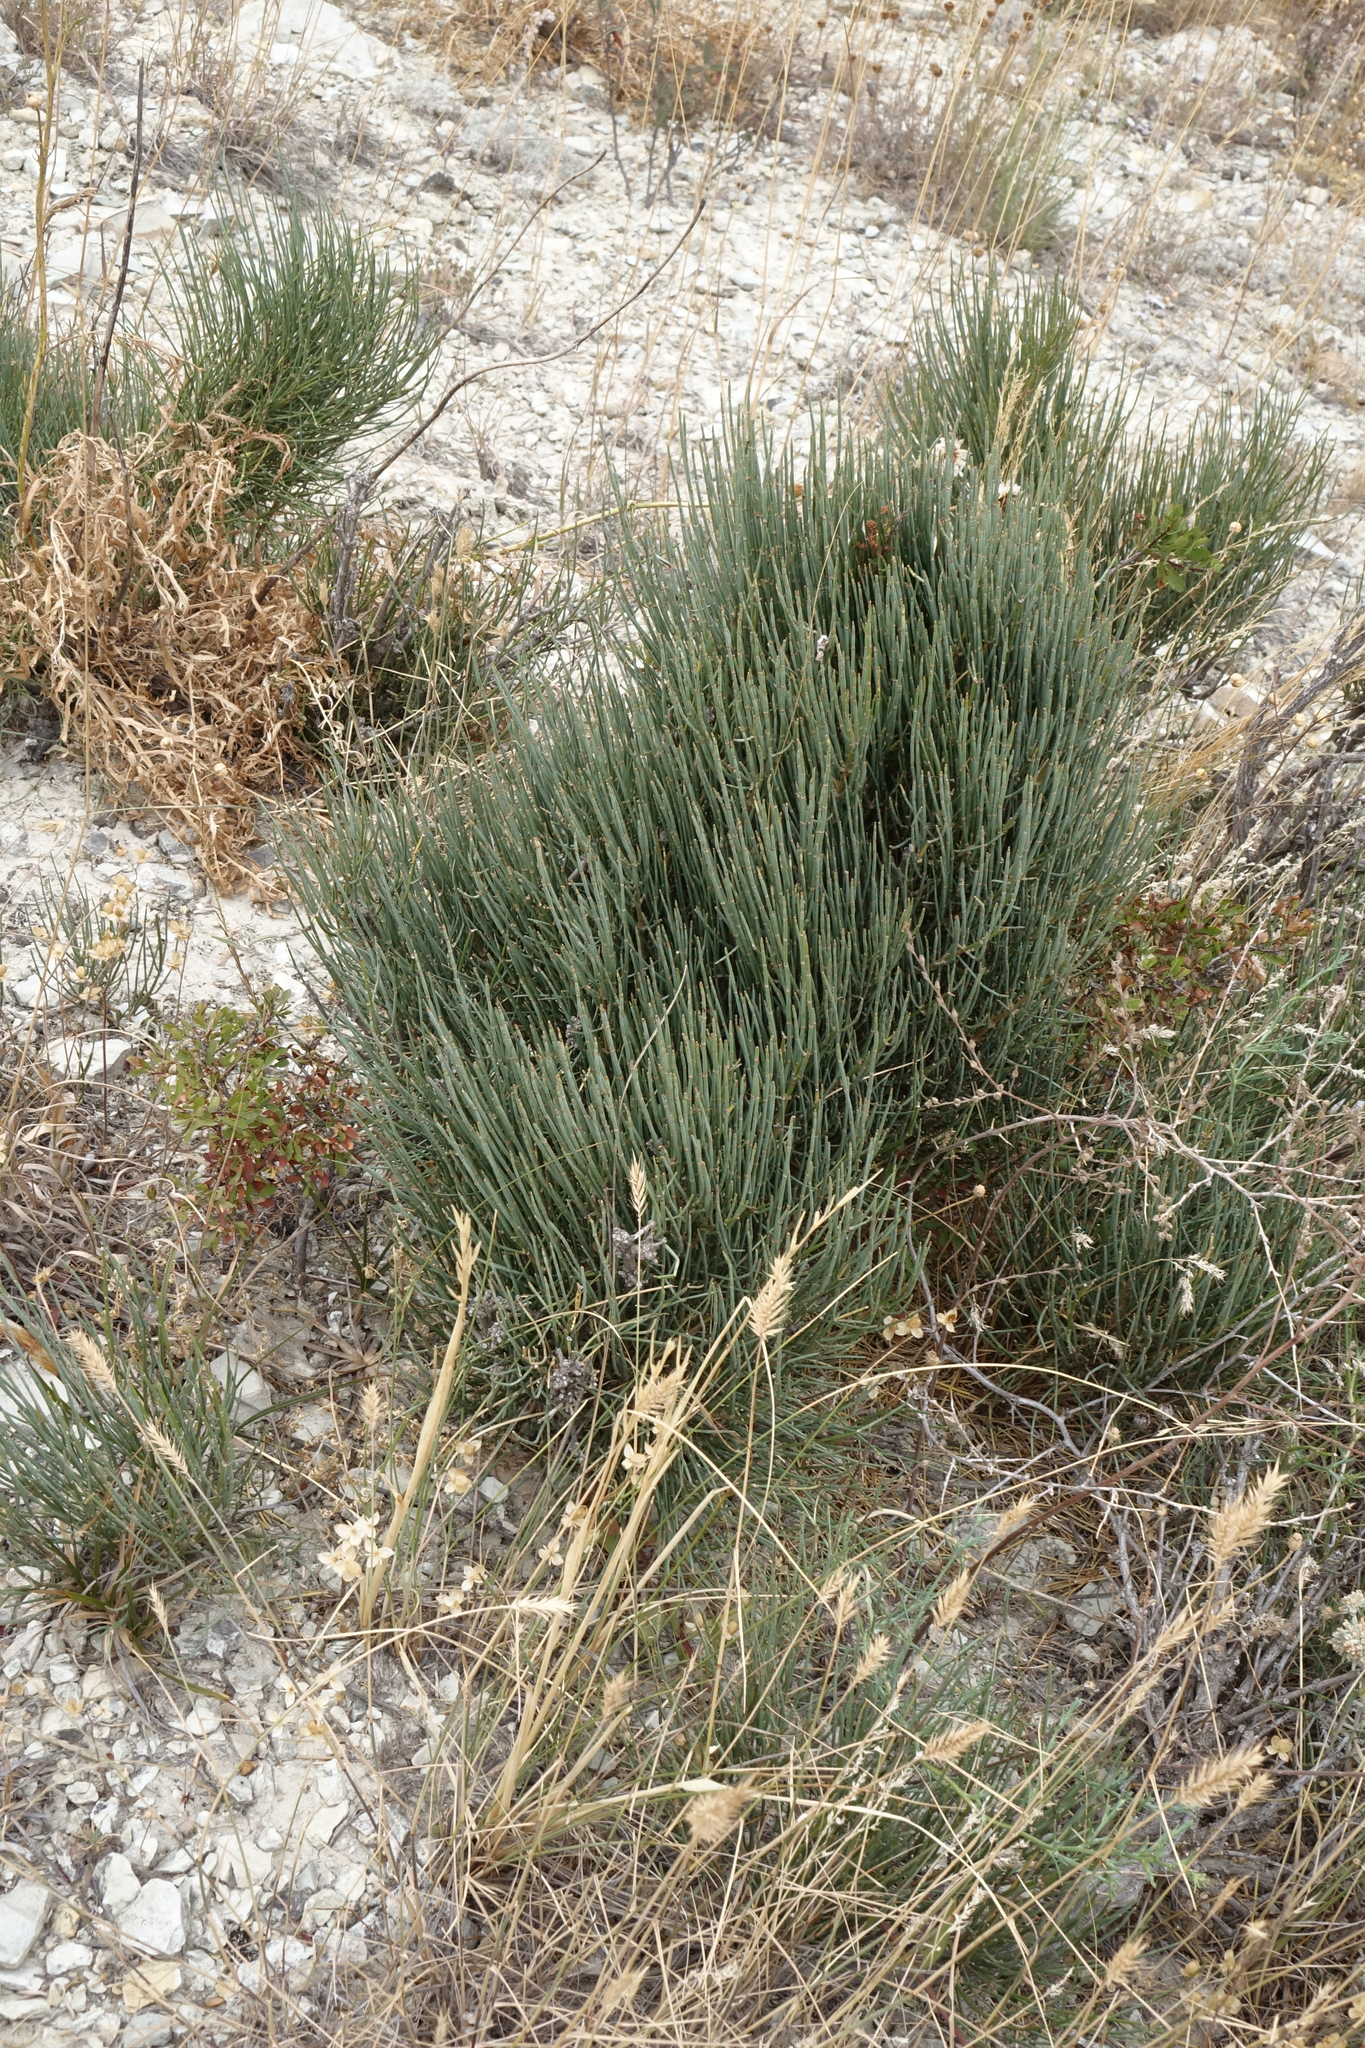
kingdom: Plantae
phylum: Tracheophyta
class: Gnetopsida
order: Ephedrales
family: Ephedraceae
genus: Ephedra
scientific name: Ephedra procera
